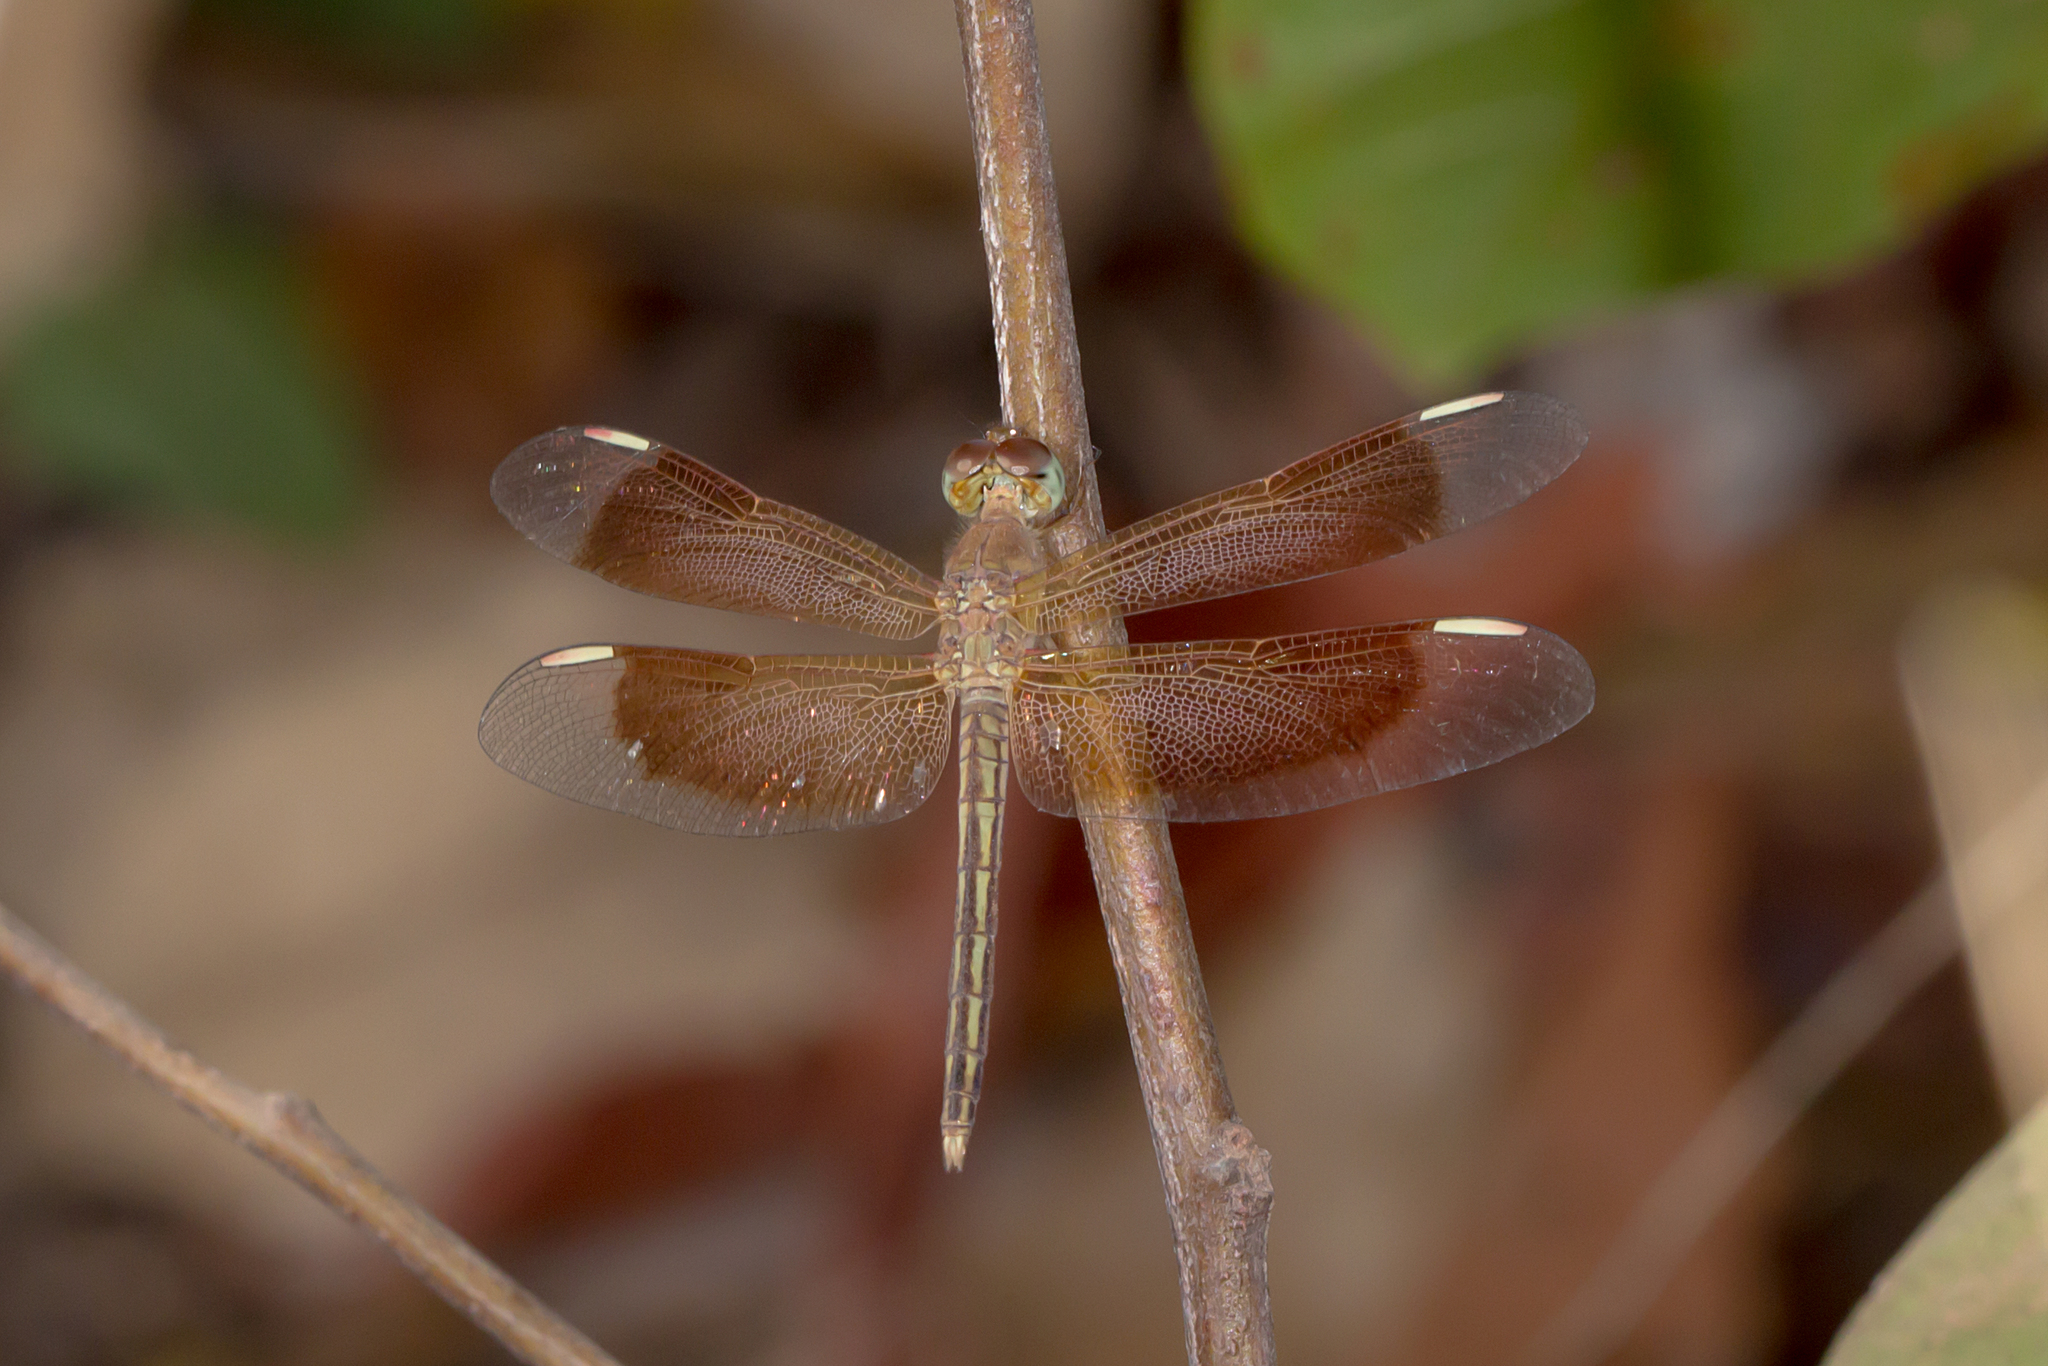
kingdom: Animalia
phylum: Arthropoda
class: Insecta
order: Odonata
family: Libellulidae
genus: Neurothemis
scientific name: Neurothemis stigmatizans
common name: Painted grasshawk
